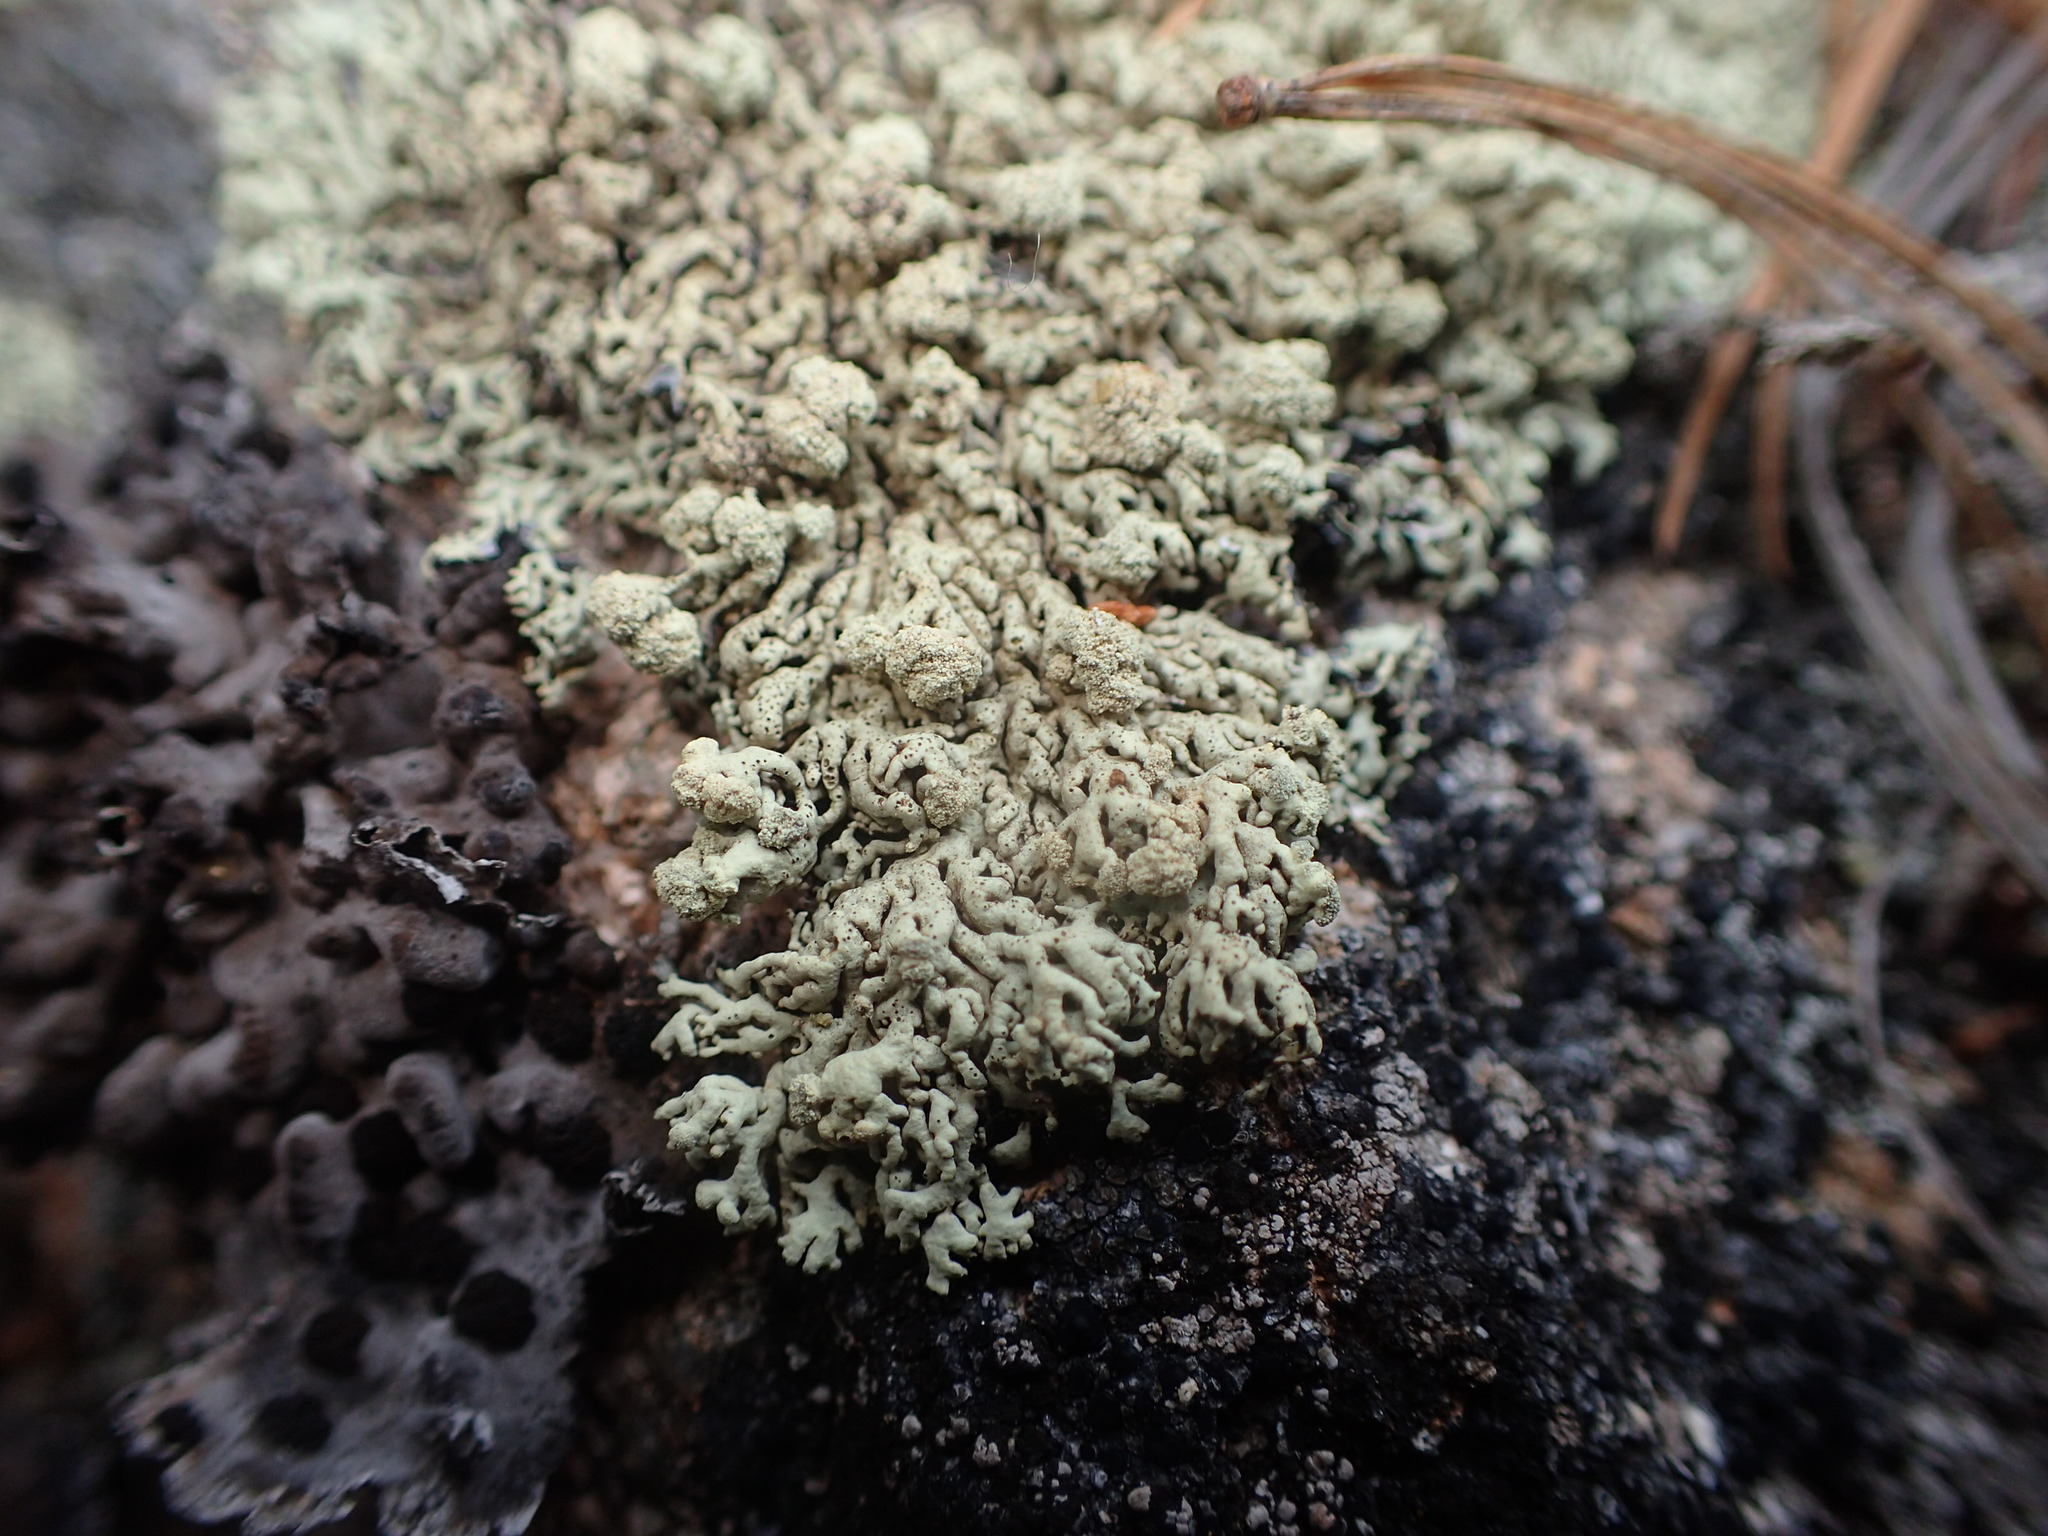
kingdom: Fungi
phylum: Ascomycota
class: Lecanoromycetes
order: Lecanorales
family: Parmeliaceae
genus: Arctoparmelia
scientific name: Arctoparmelia incurva
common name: Bent ring lichen
